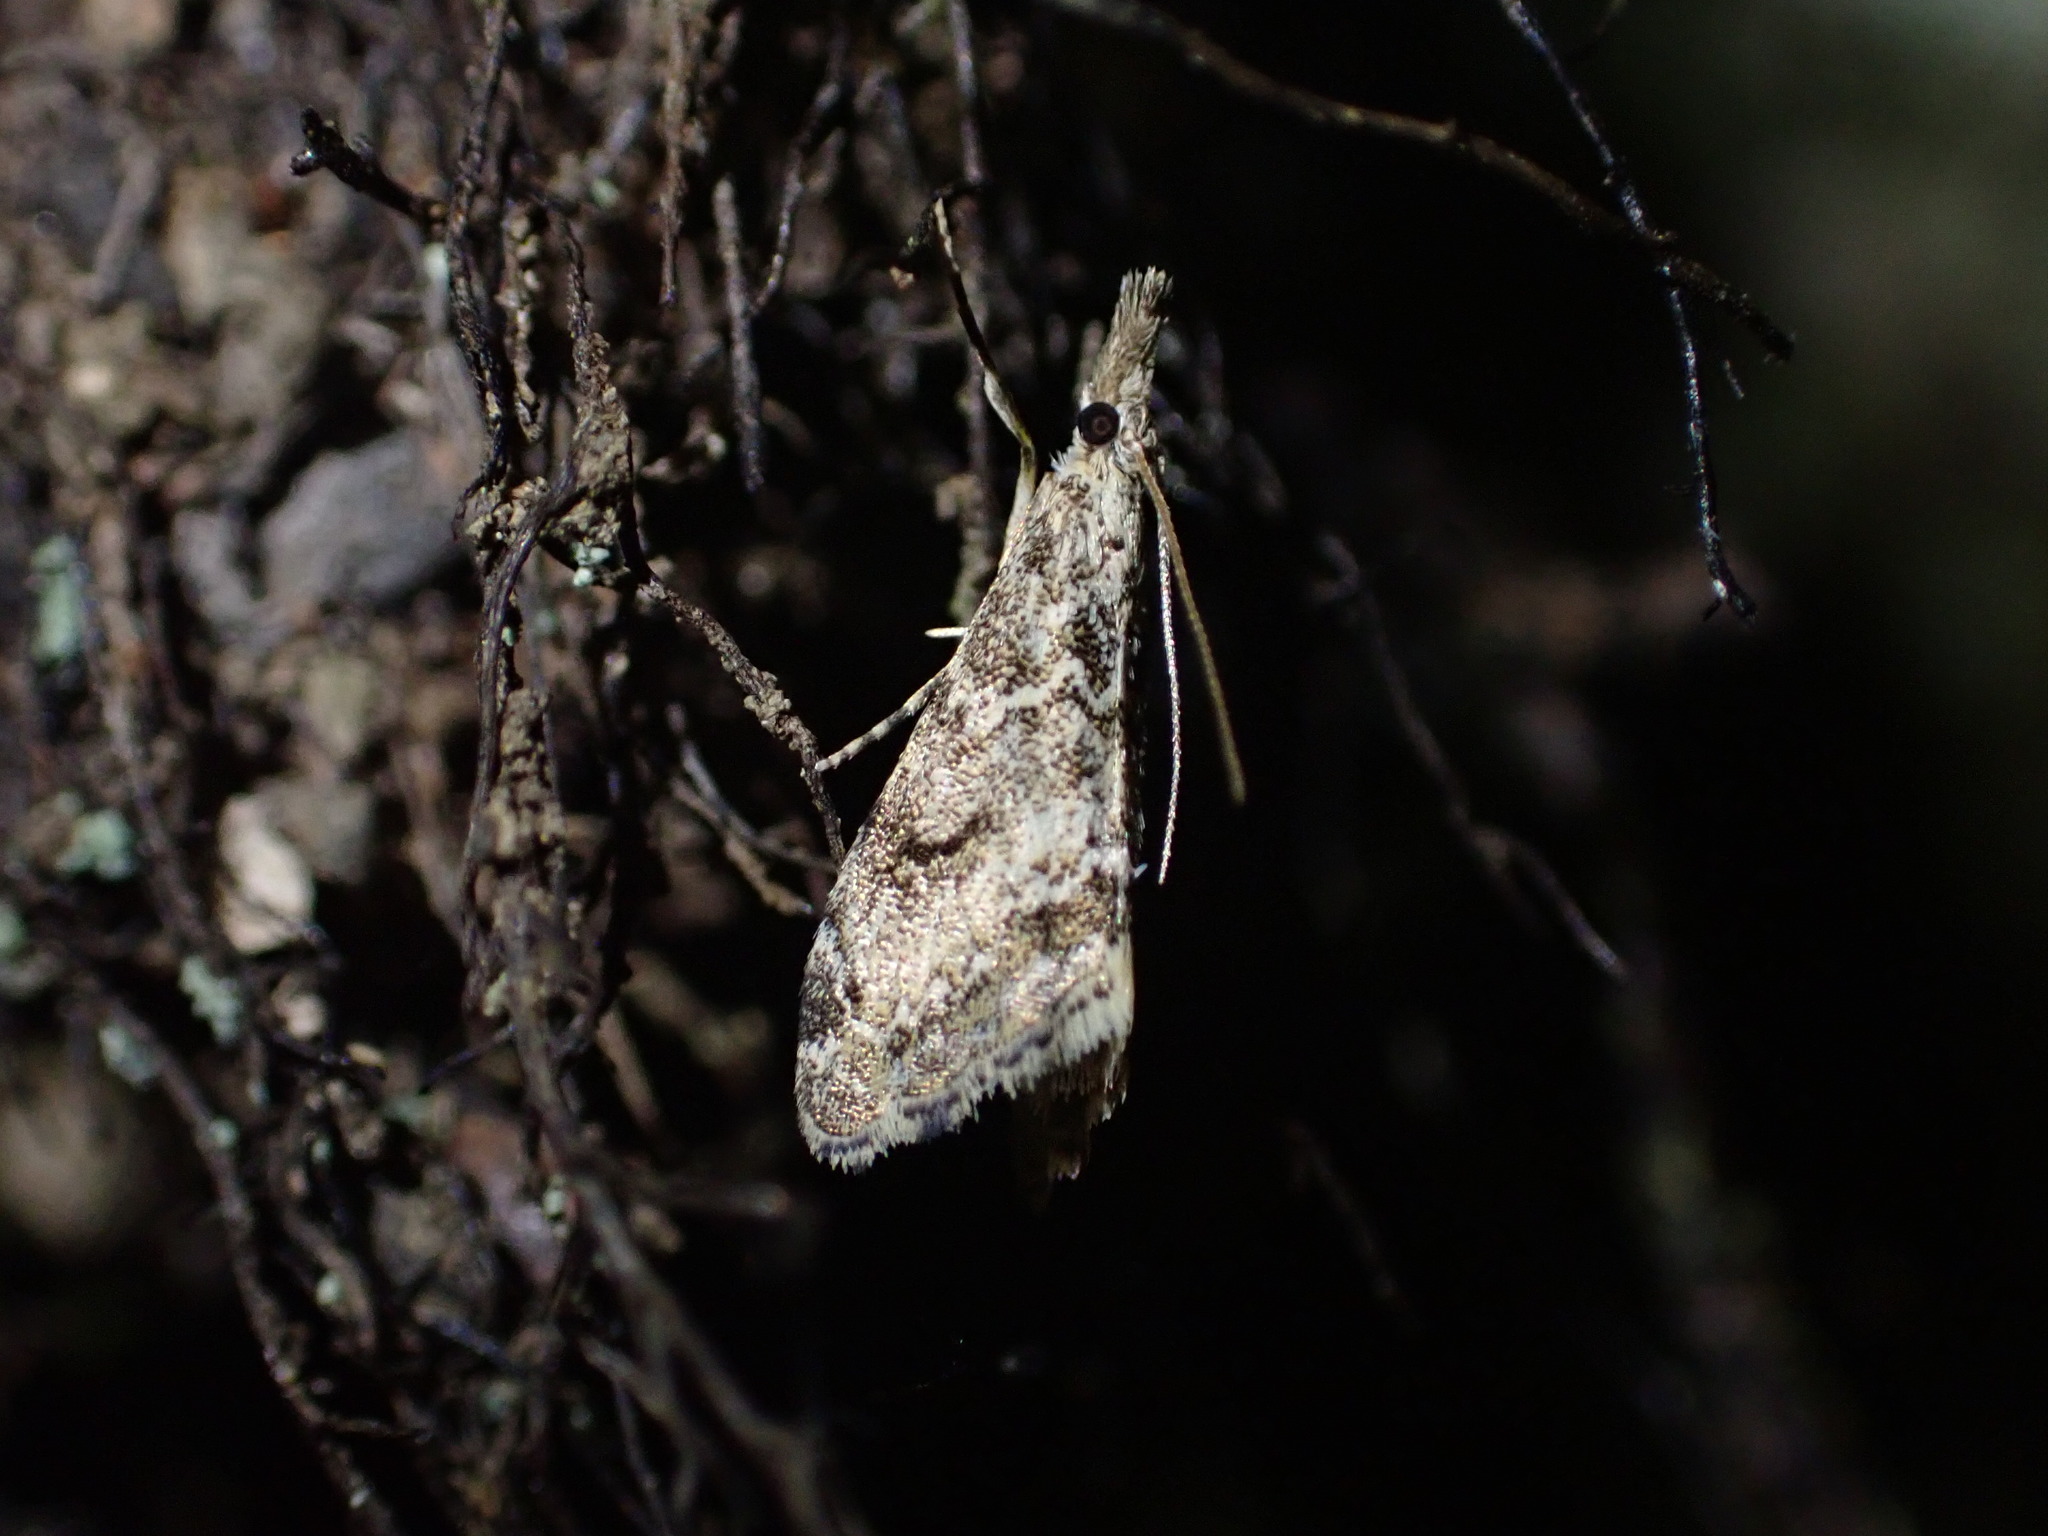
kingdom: Animalia
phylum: Arthropoda
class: Insecta
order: Lepidoptera
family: Crambidae
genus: Glaucocharis
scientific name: Glaucocharis elaina
